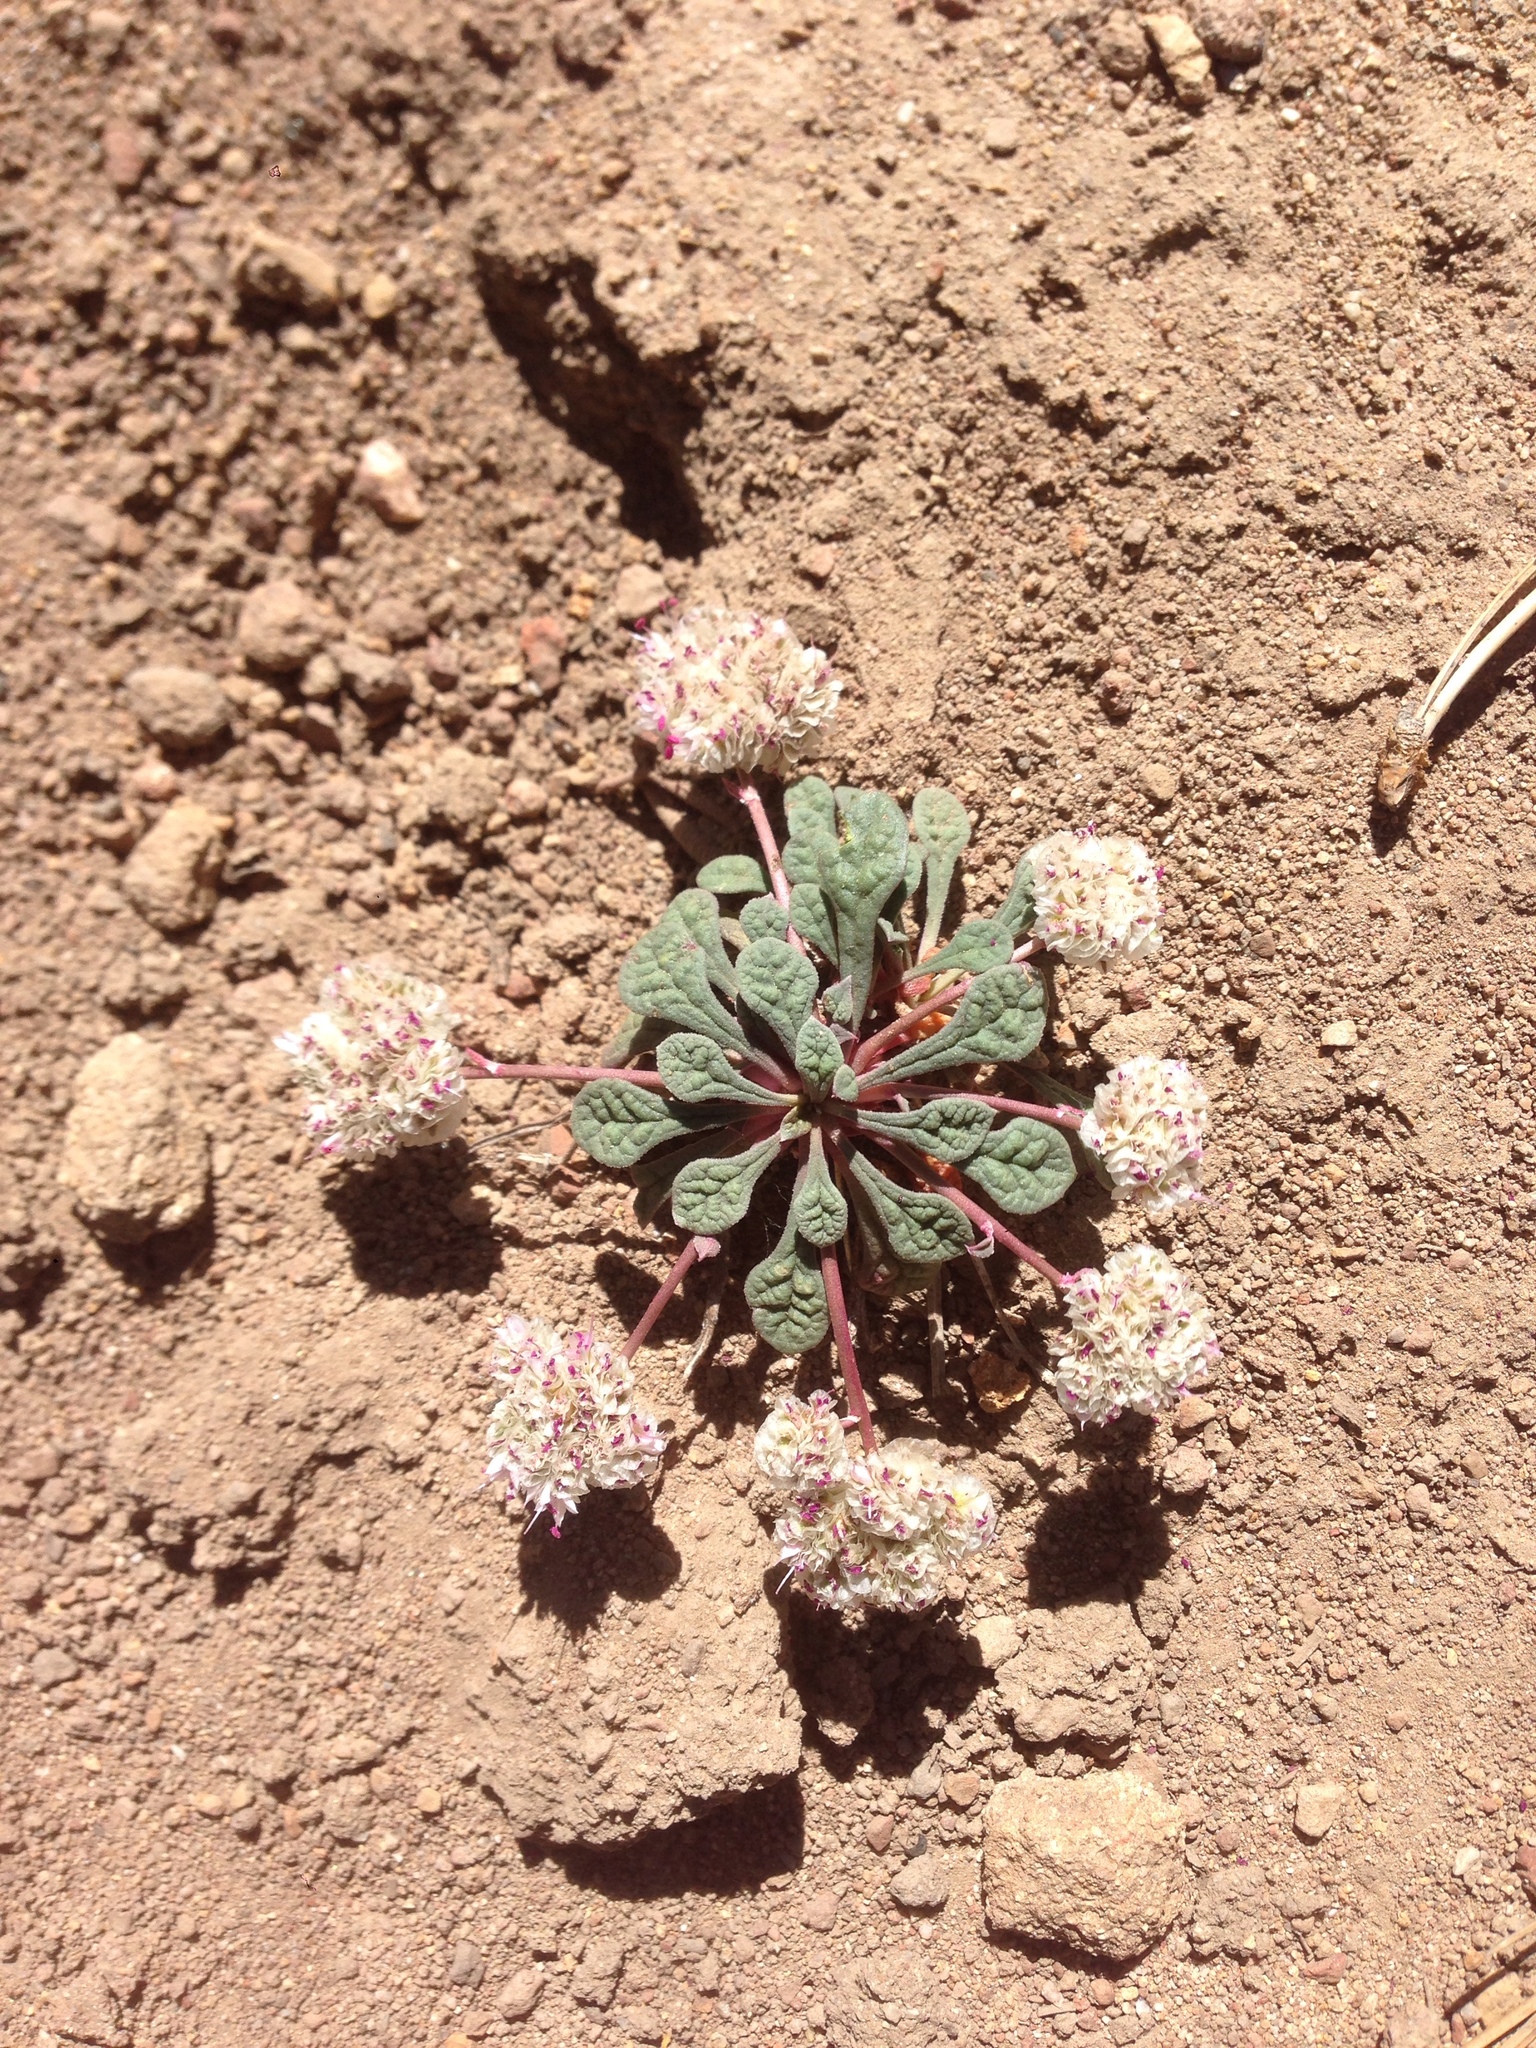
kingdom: Plantae
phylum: Tracheophyta
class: Magnoliopsida
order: Caryophyllales
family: Montiaceae
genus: Calyptridium
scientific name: Calyptridium monospermum
